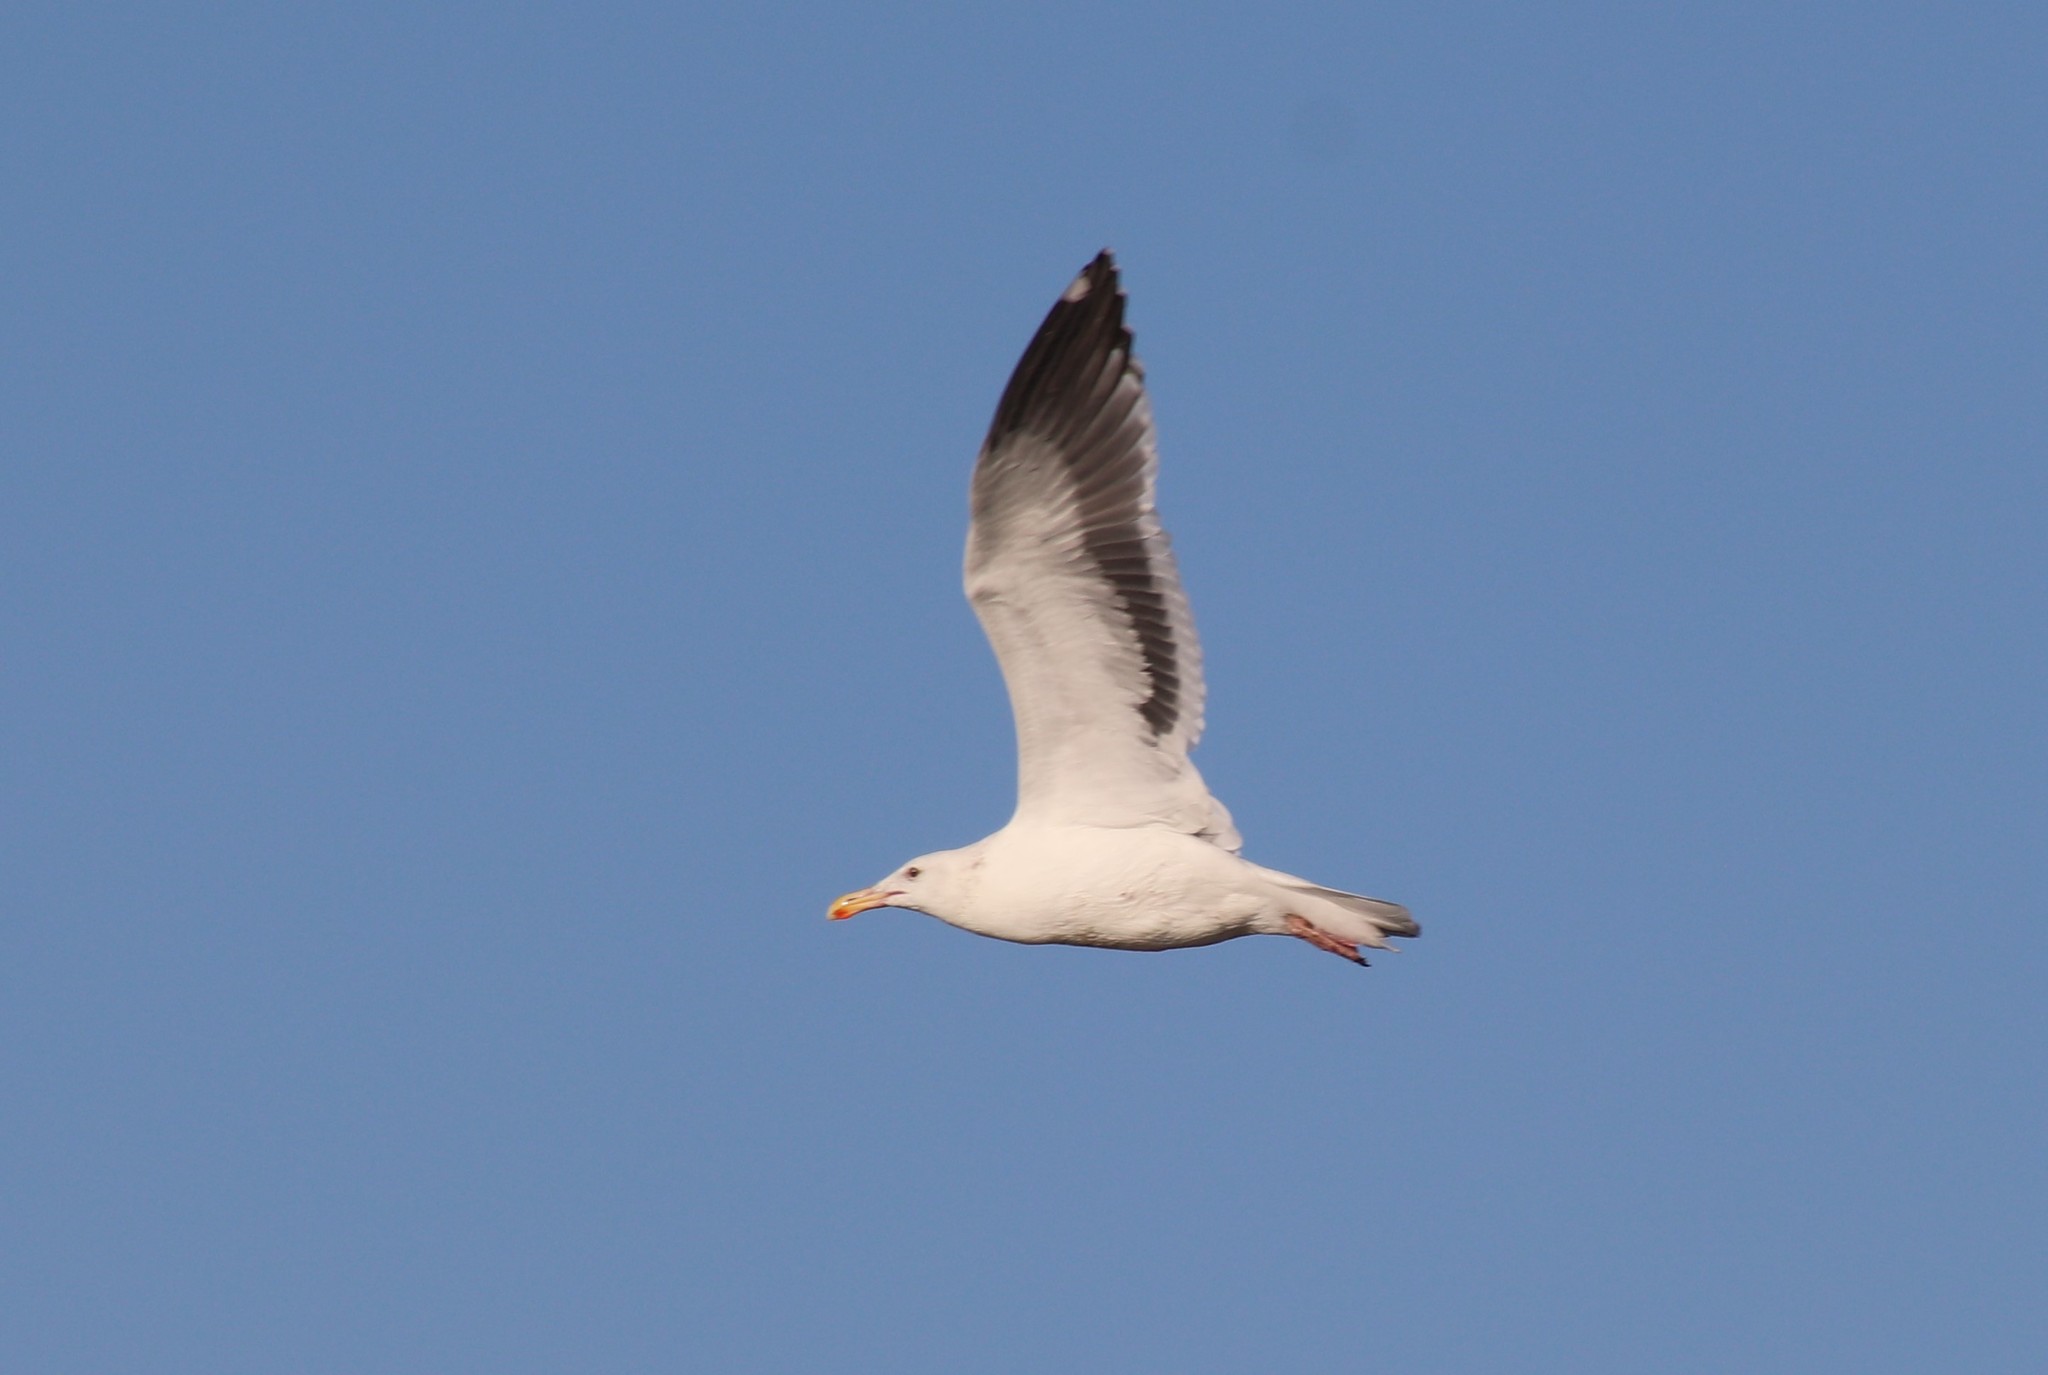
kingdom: Animalia
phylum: Chordata
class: Aves
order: Charadriiformes
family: Laridae
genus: Larus
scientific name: Larus occidentalis
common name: Western gull
